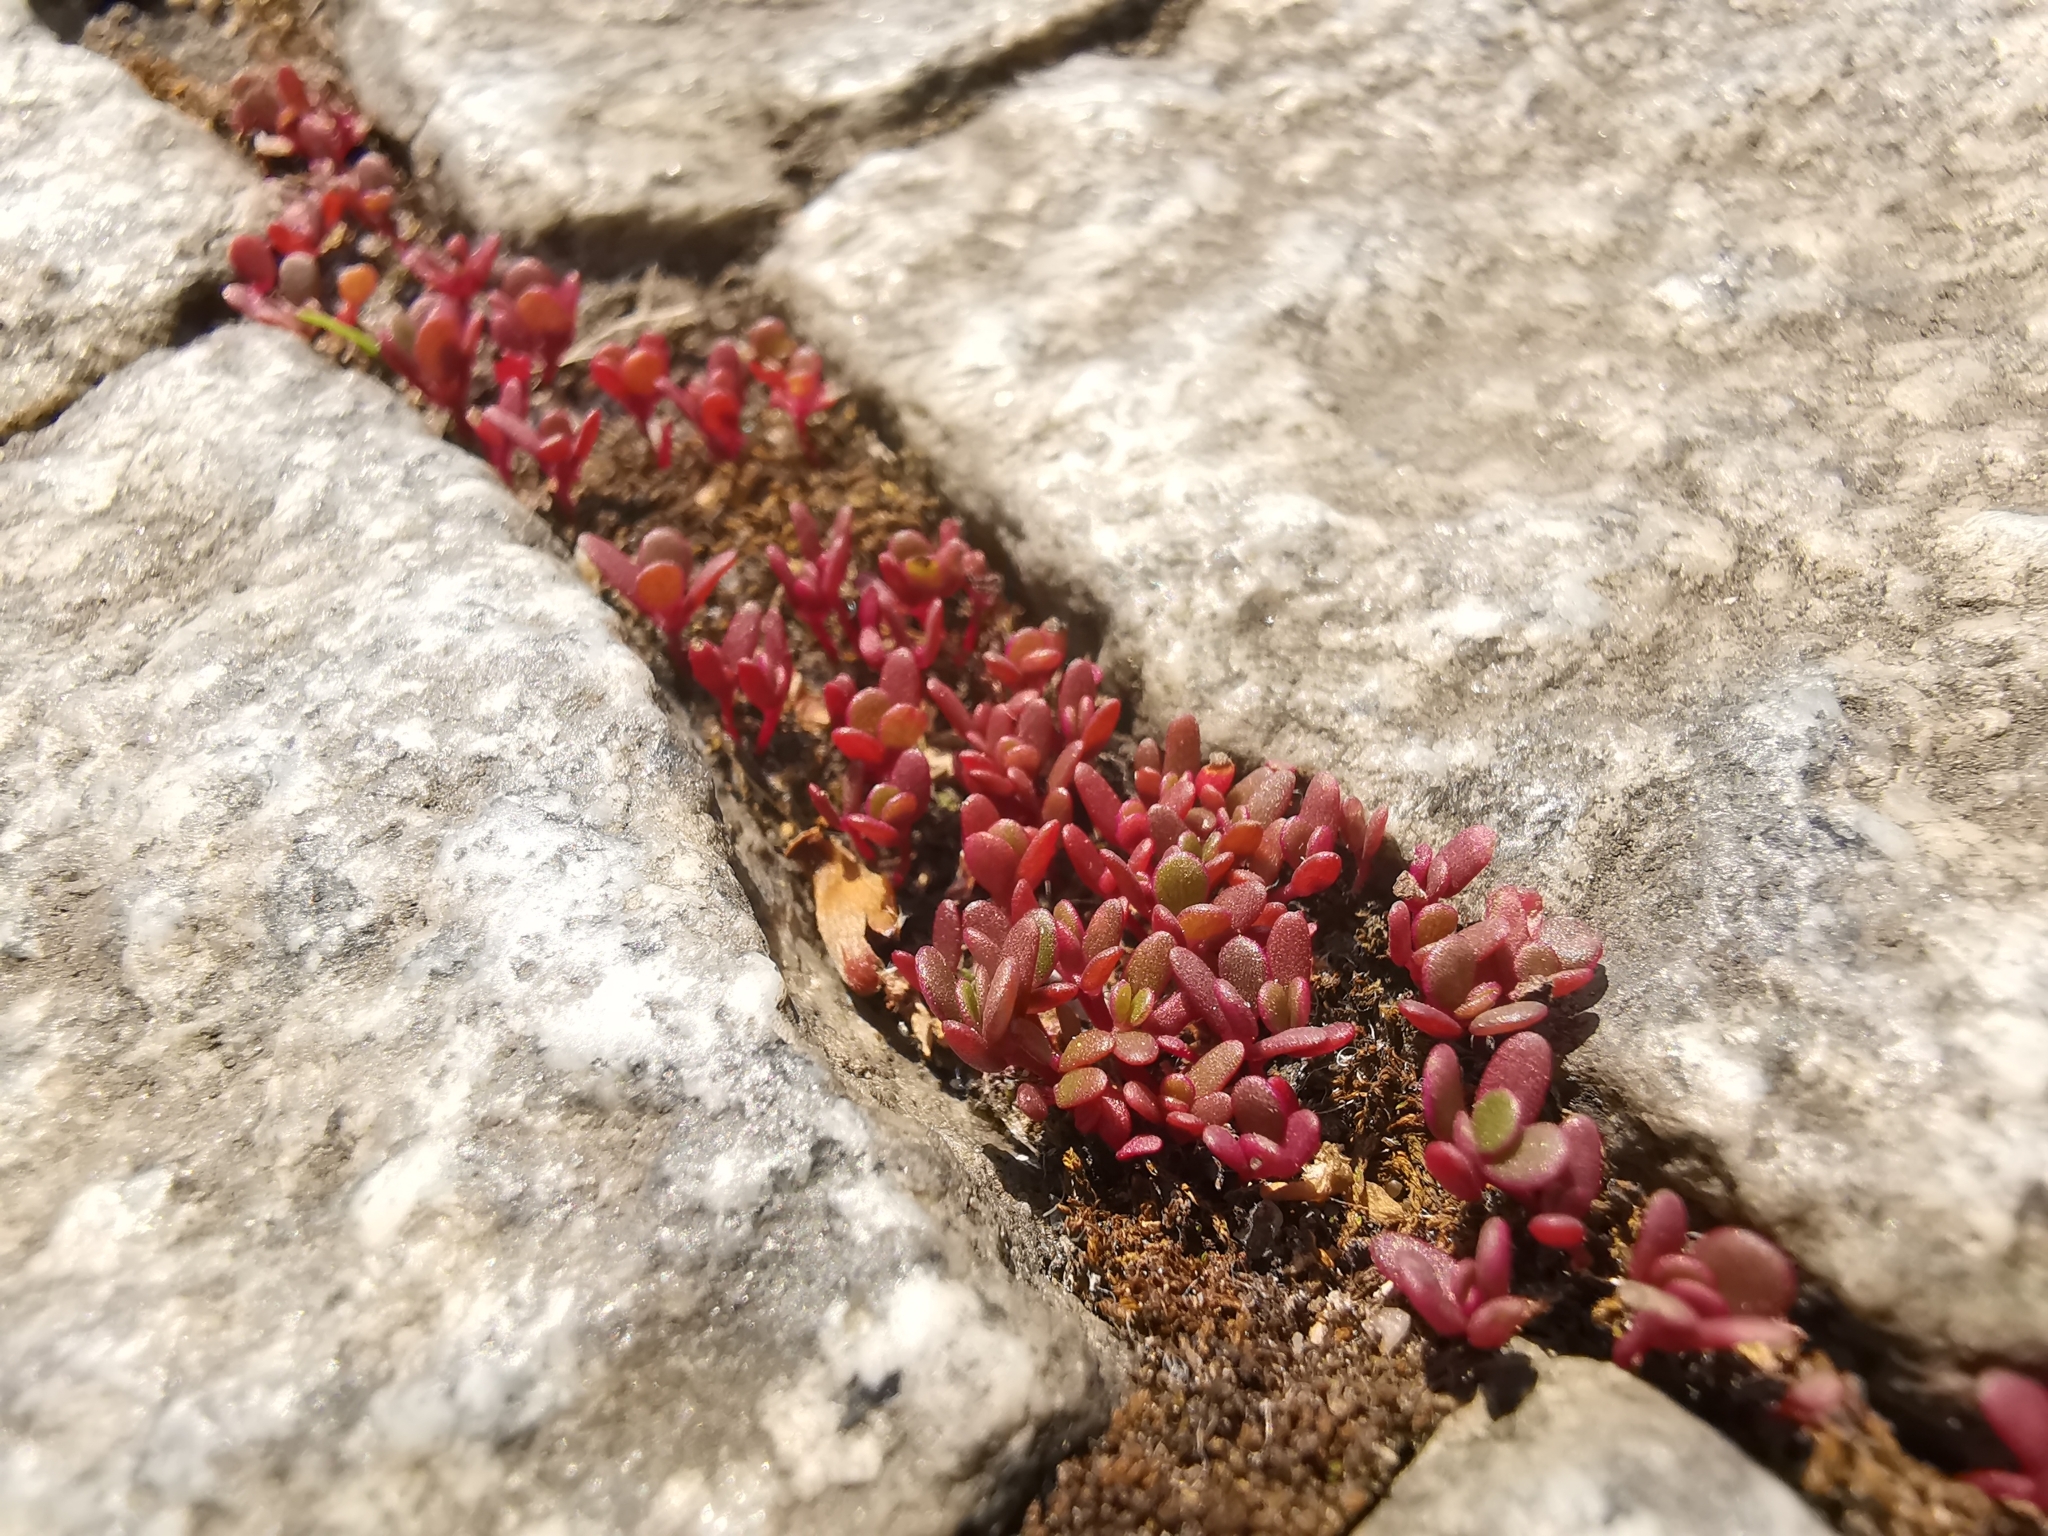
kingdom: Plantae
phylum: Tracheophyta
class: Magnoliopsida
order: Caryophyllales
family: Portulacaceae
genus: Portulaca
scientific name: Portulaca oleracea
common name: Common purslane
